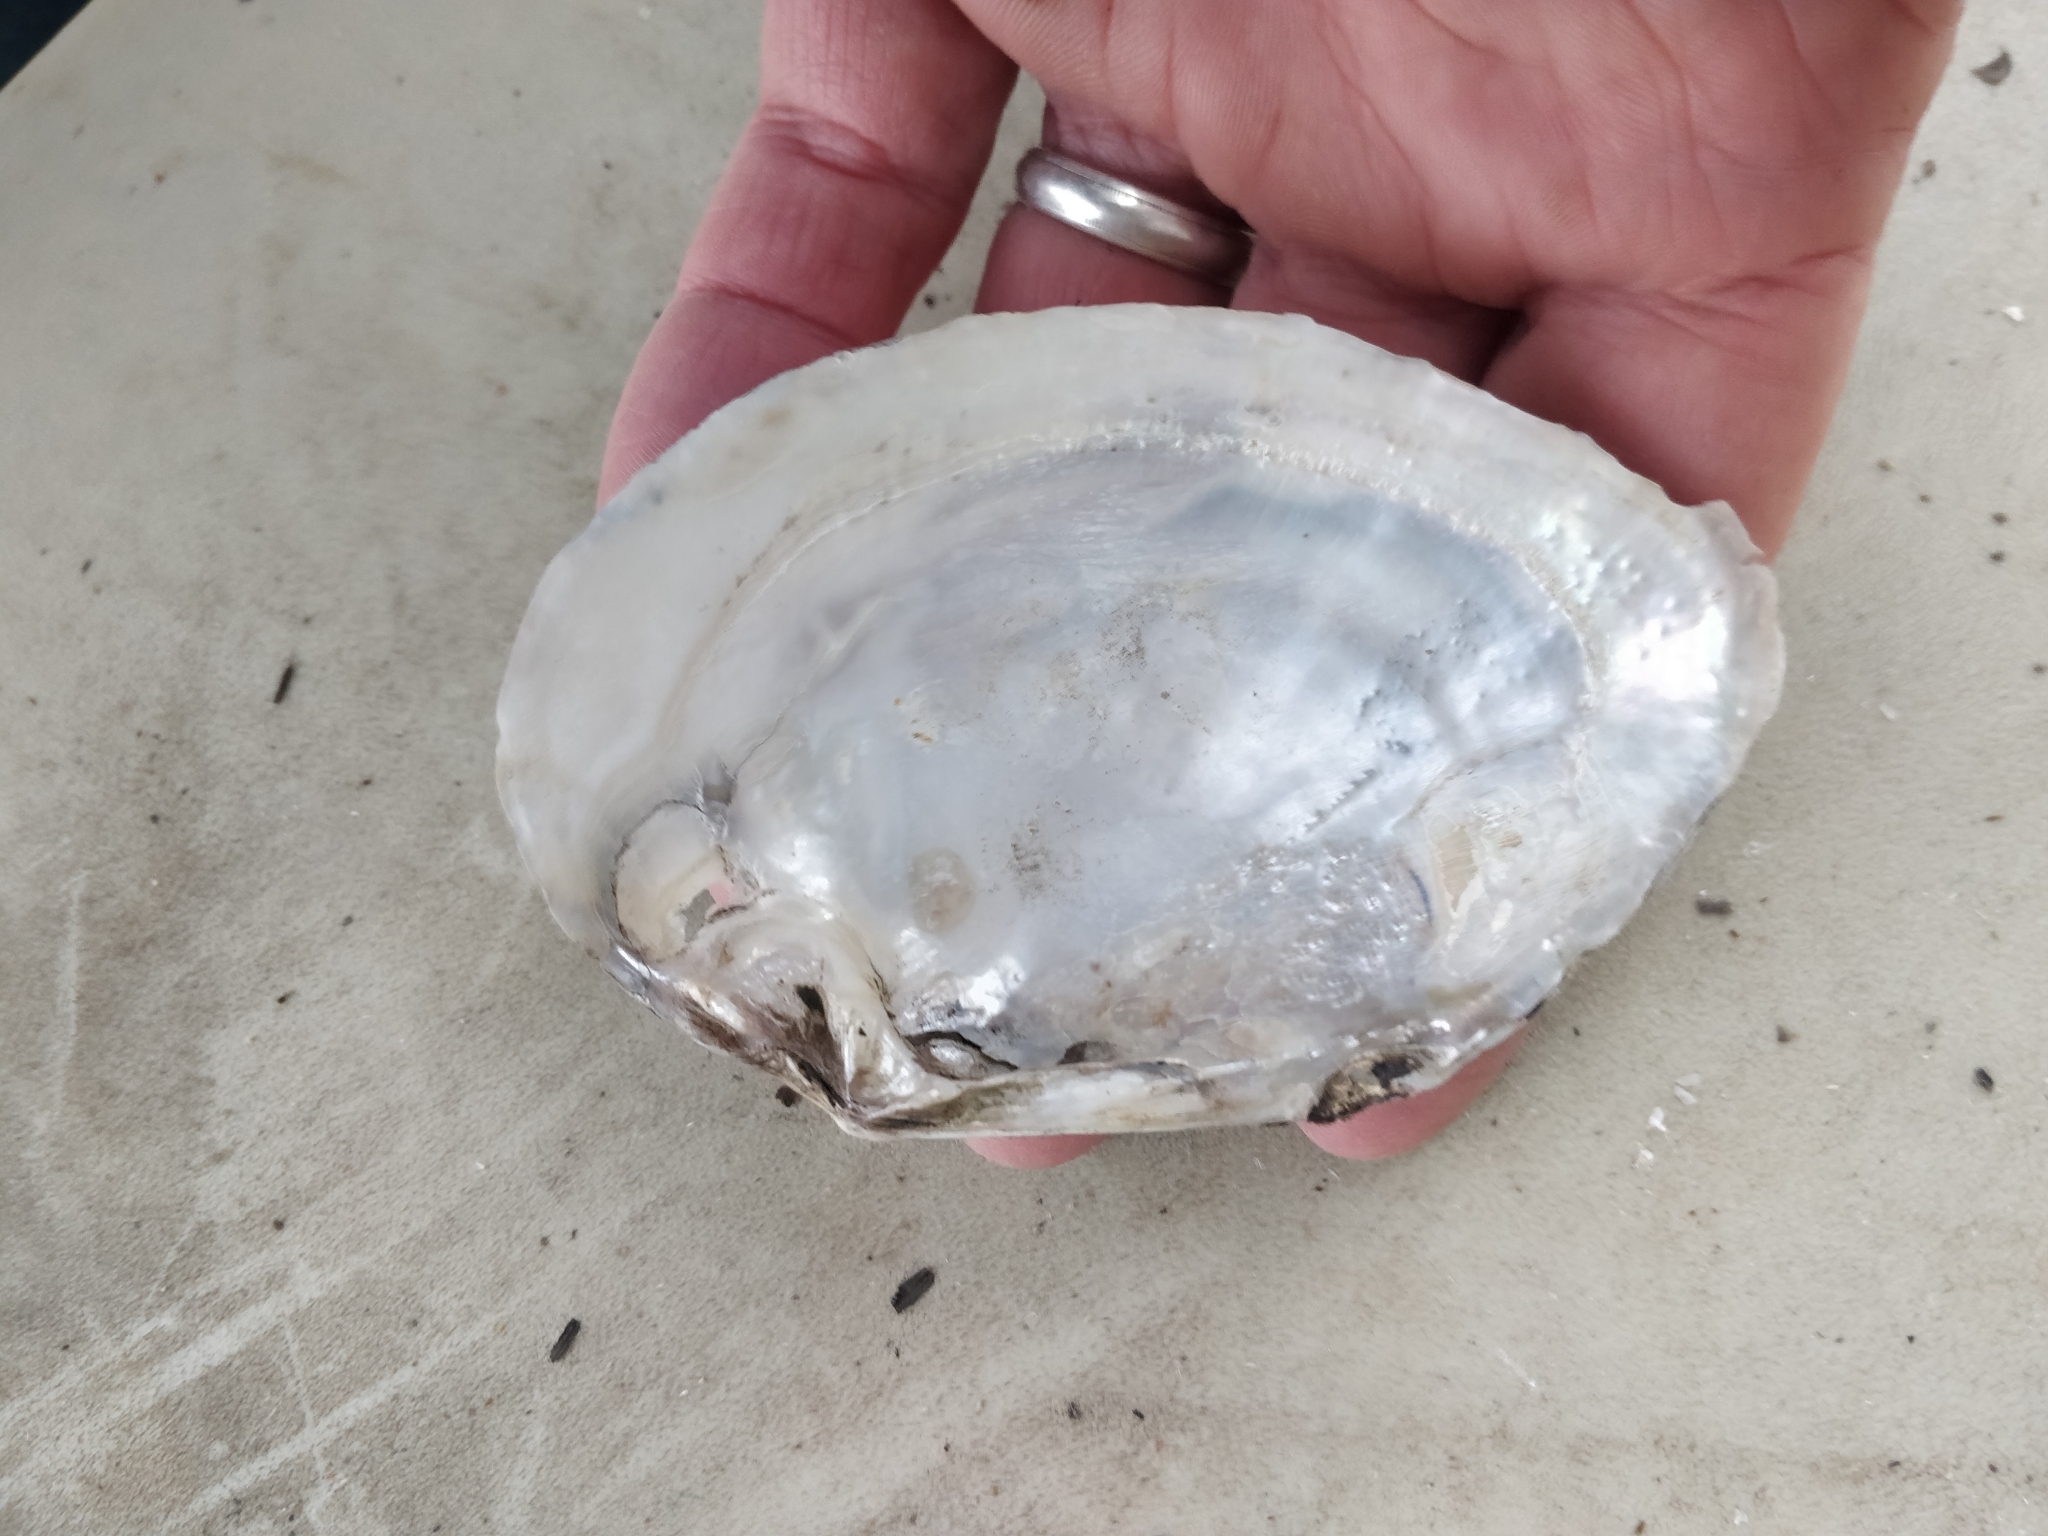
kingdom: Animalia
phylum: Mollusca
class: Bivalvia
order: Unionida
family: Unionidae
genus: Lasmigona
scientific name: Lasmigona complanata
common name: White heelsplitter
